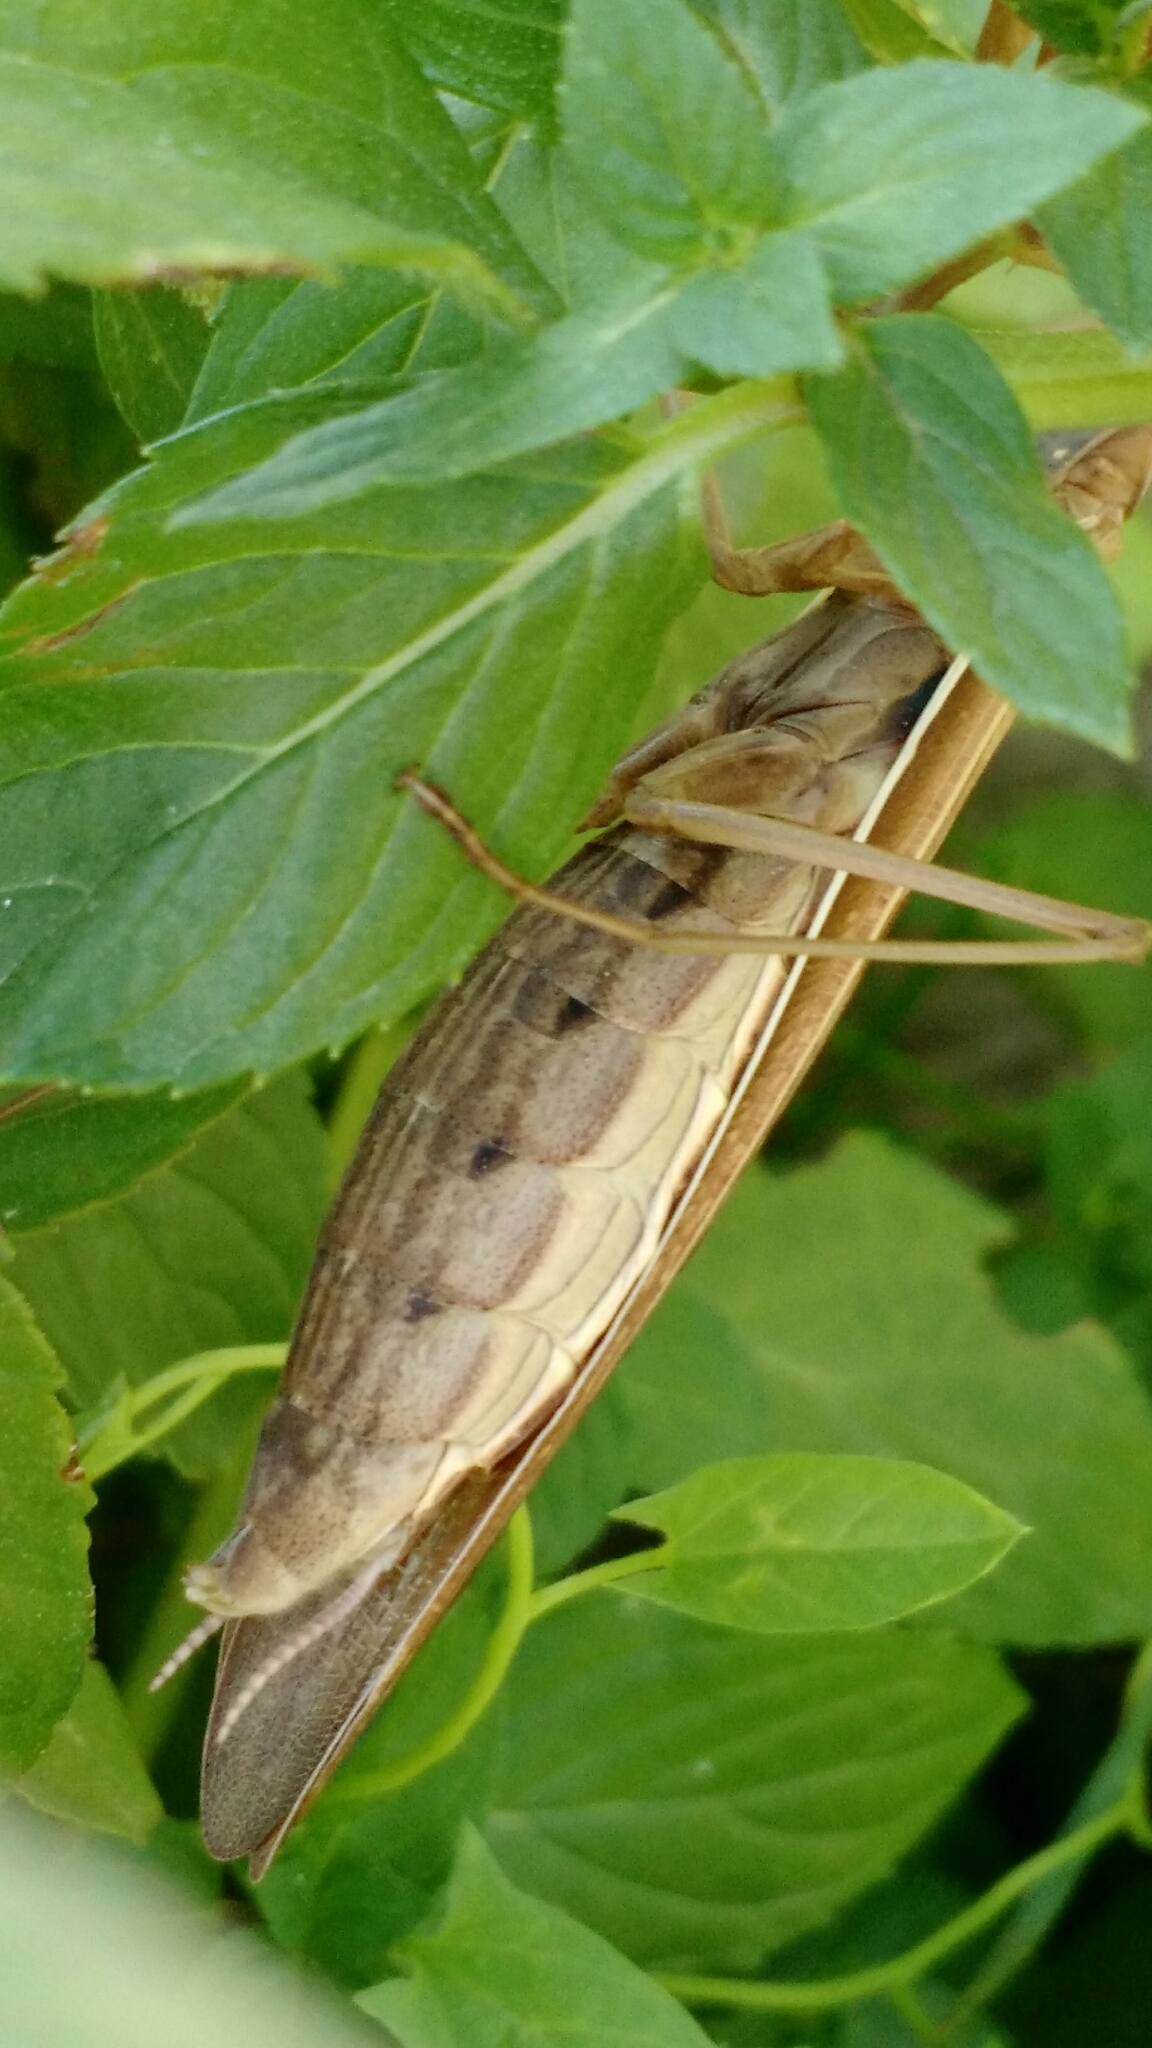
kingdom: Animalia
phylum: Arthropoda
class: Insecta
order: Mantodea
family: Mantidae
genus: Mantis
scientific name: Mantis religiosa
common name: Praying mantis
